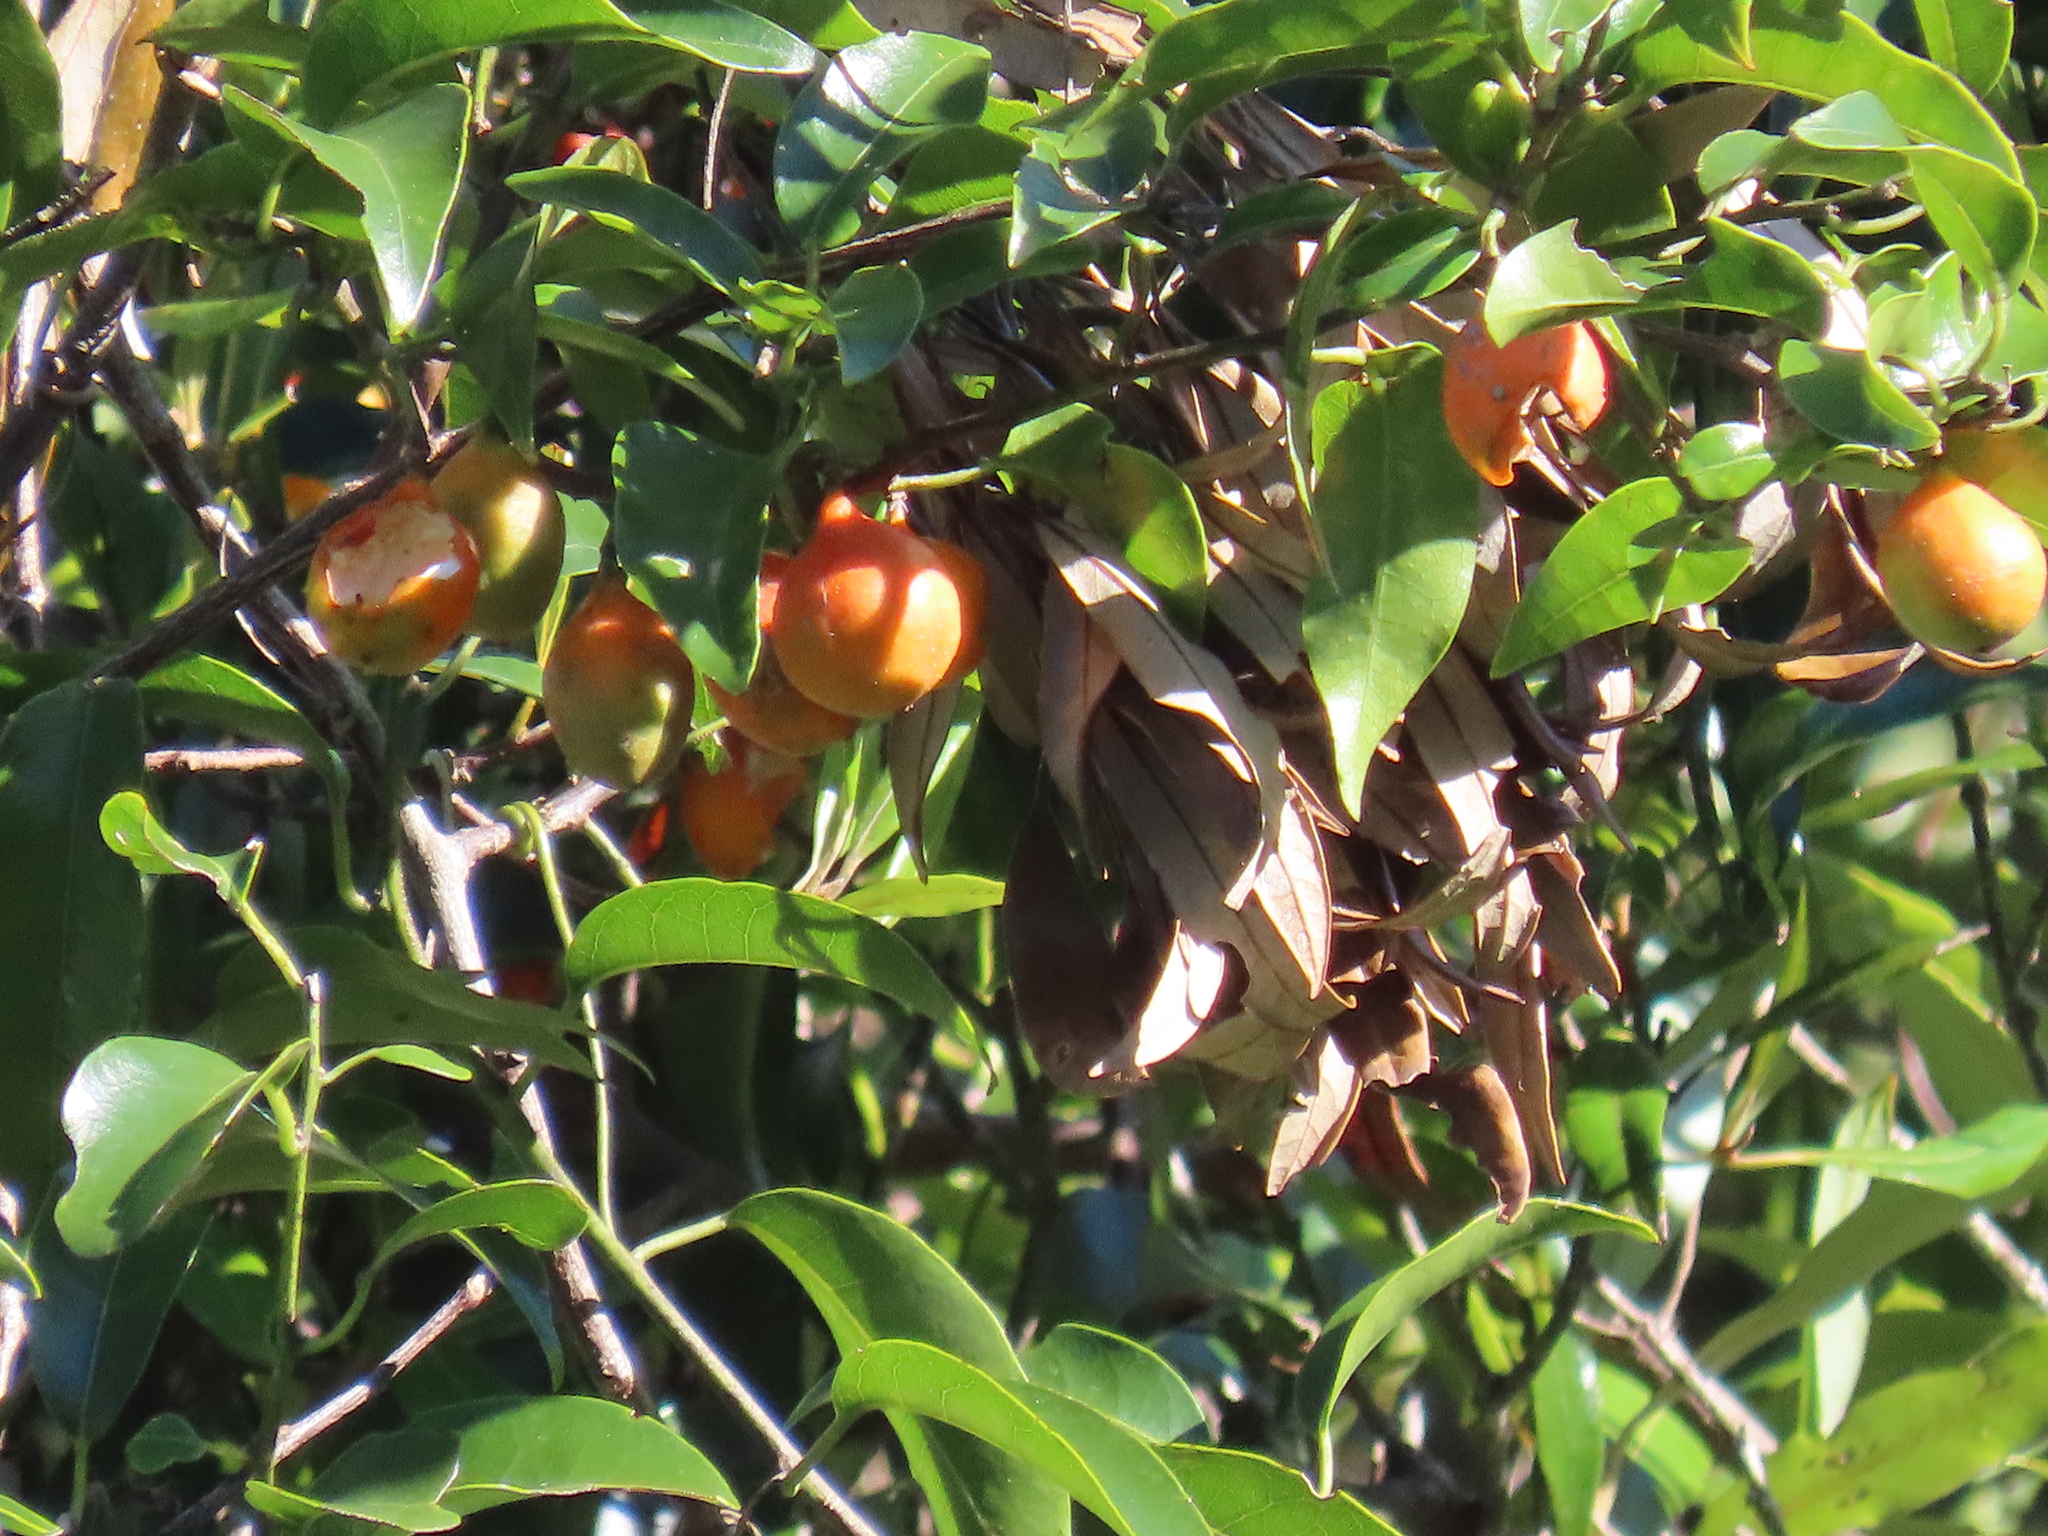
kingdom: Plantae
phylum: Tracheophyta
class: Magnoliopsida
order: Malpighiales
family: Passifloraceae
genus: Passiflora
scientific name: Passiflora tetrandra
